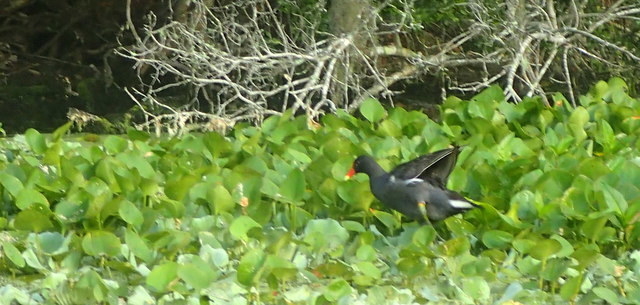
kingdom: Animalia
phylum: Chordata
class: Aves
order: Gruiformes
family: Rallidae
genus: Gallinula
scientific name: Gallinula chloropus
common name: Common moorhen
